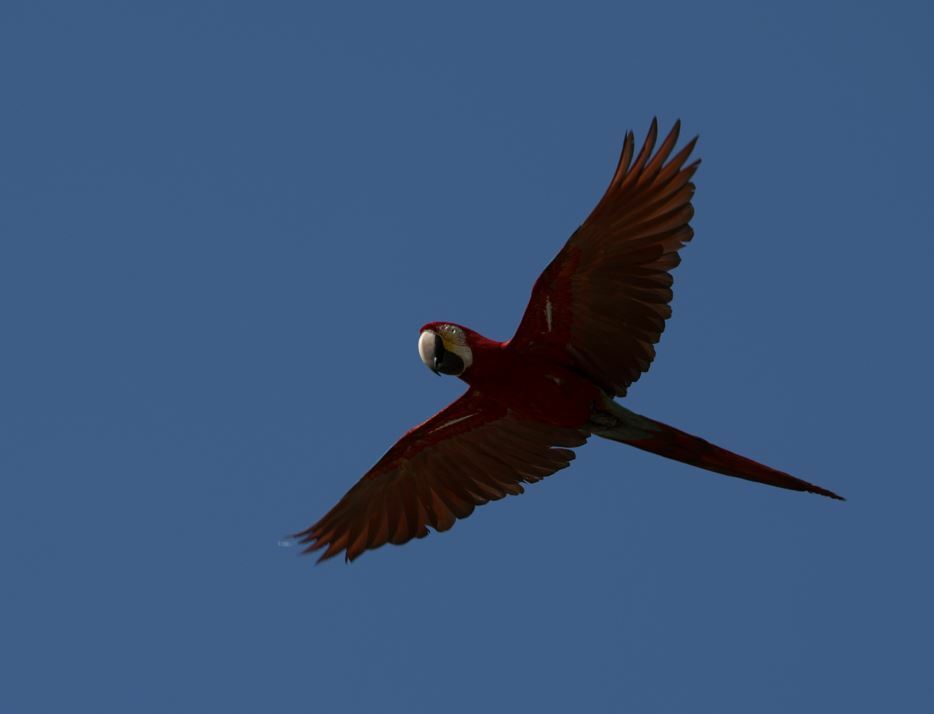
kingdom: Animalia
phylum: Chordata
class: Aves
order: Psittaciformes
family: Psittacidae
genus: Ara
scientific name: Ara chloropterus
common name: Red-and-green macaw
